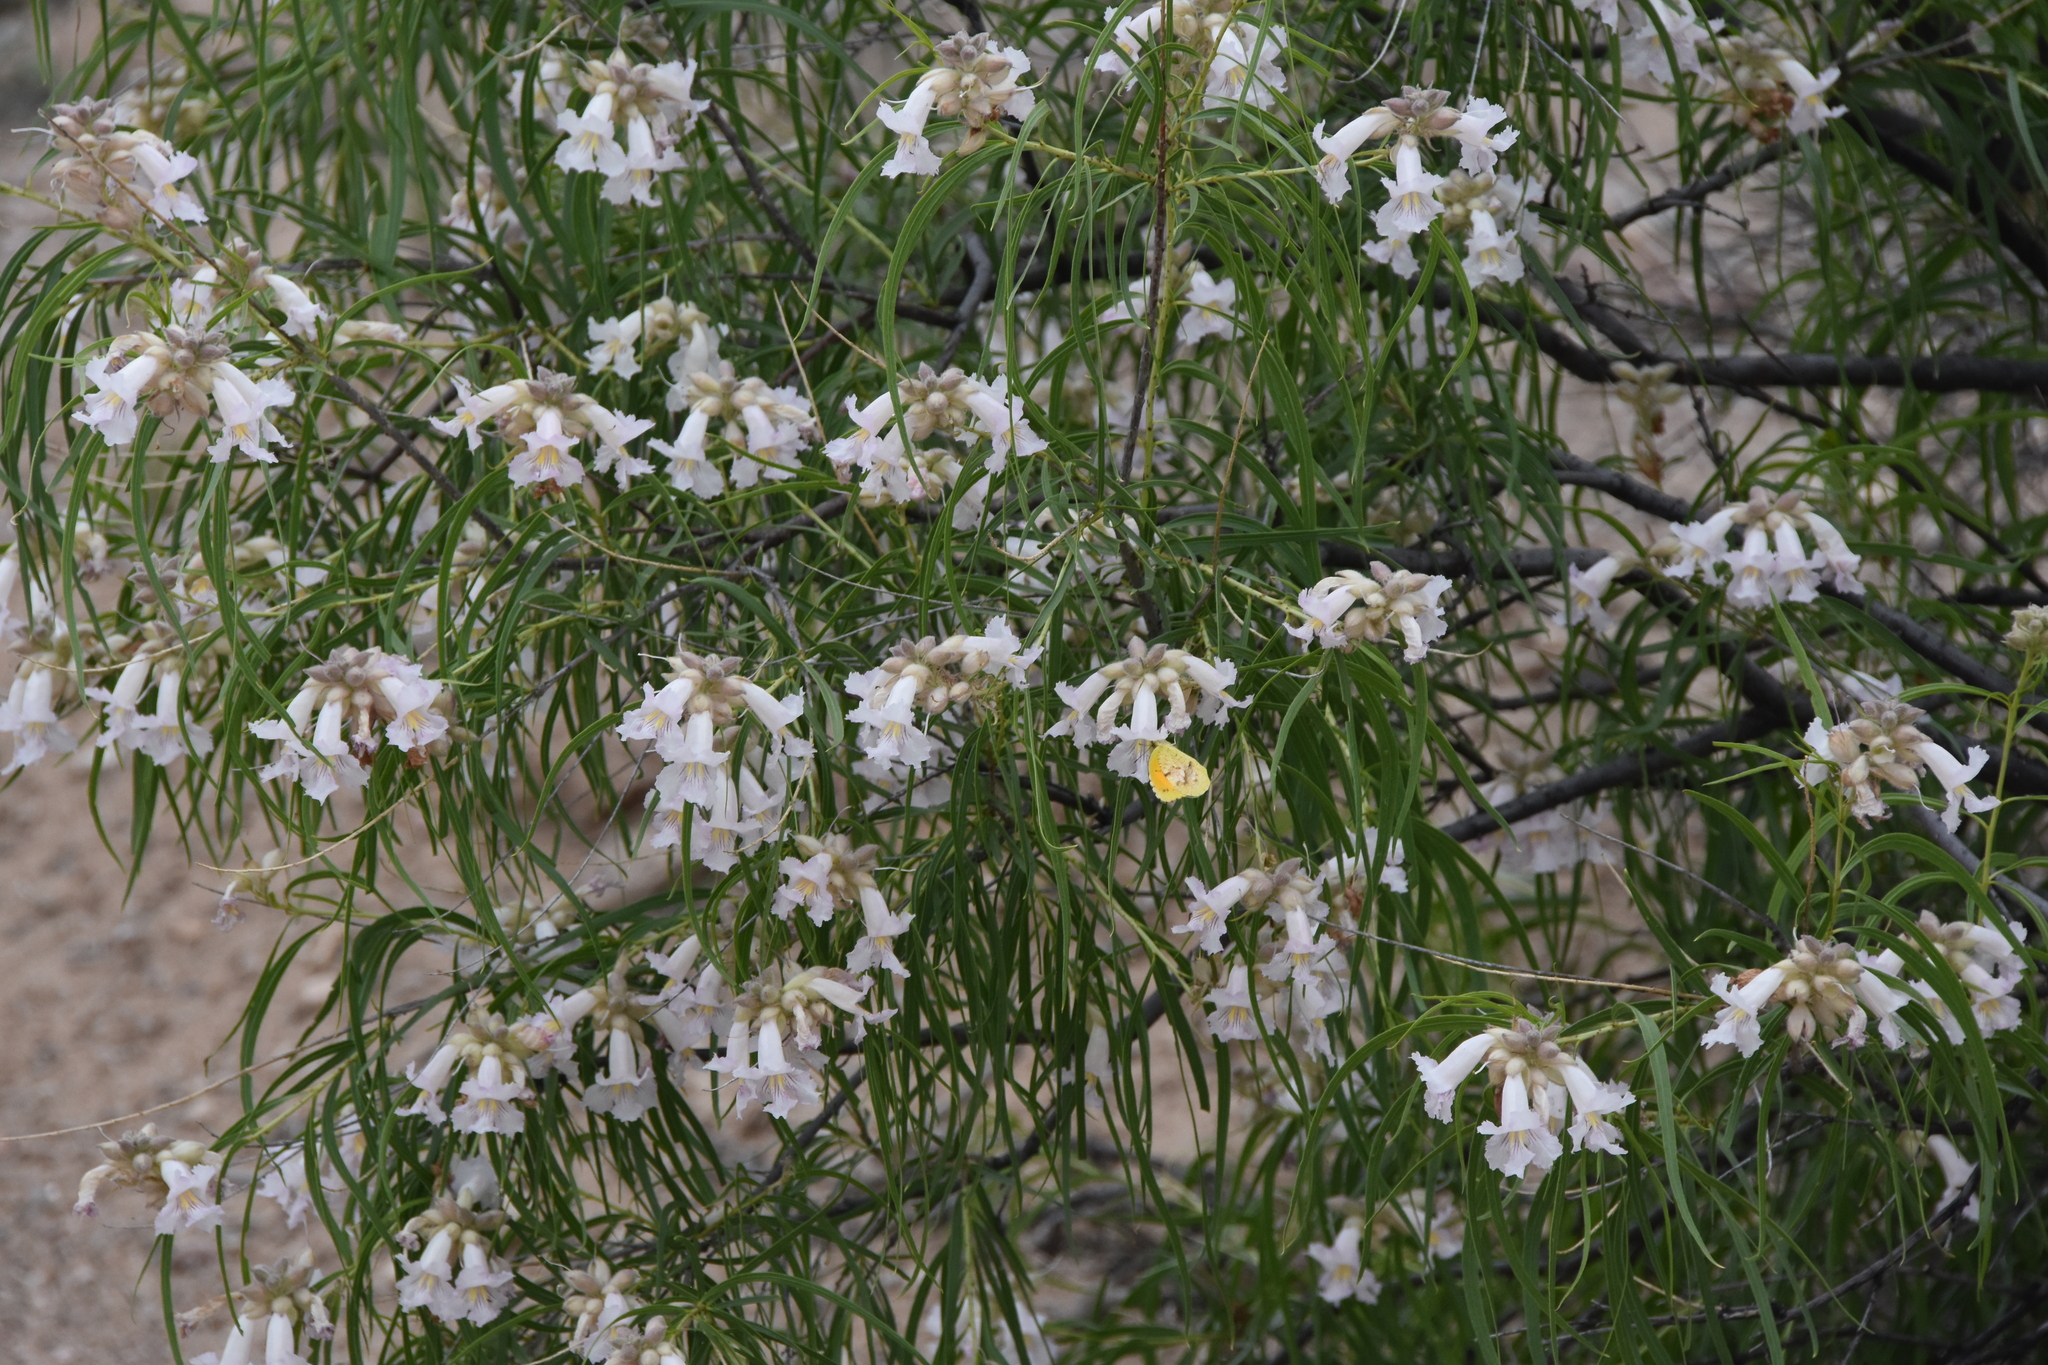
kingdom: Animalia
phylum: Arthropoda
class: Insecta
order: Lepidoptera
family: Pieridae
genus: Abaeis
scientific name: Abaeis nicippe
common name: Sleepy orange
